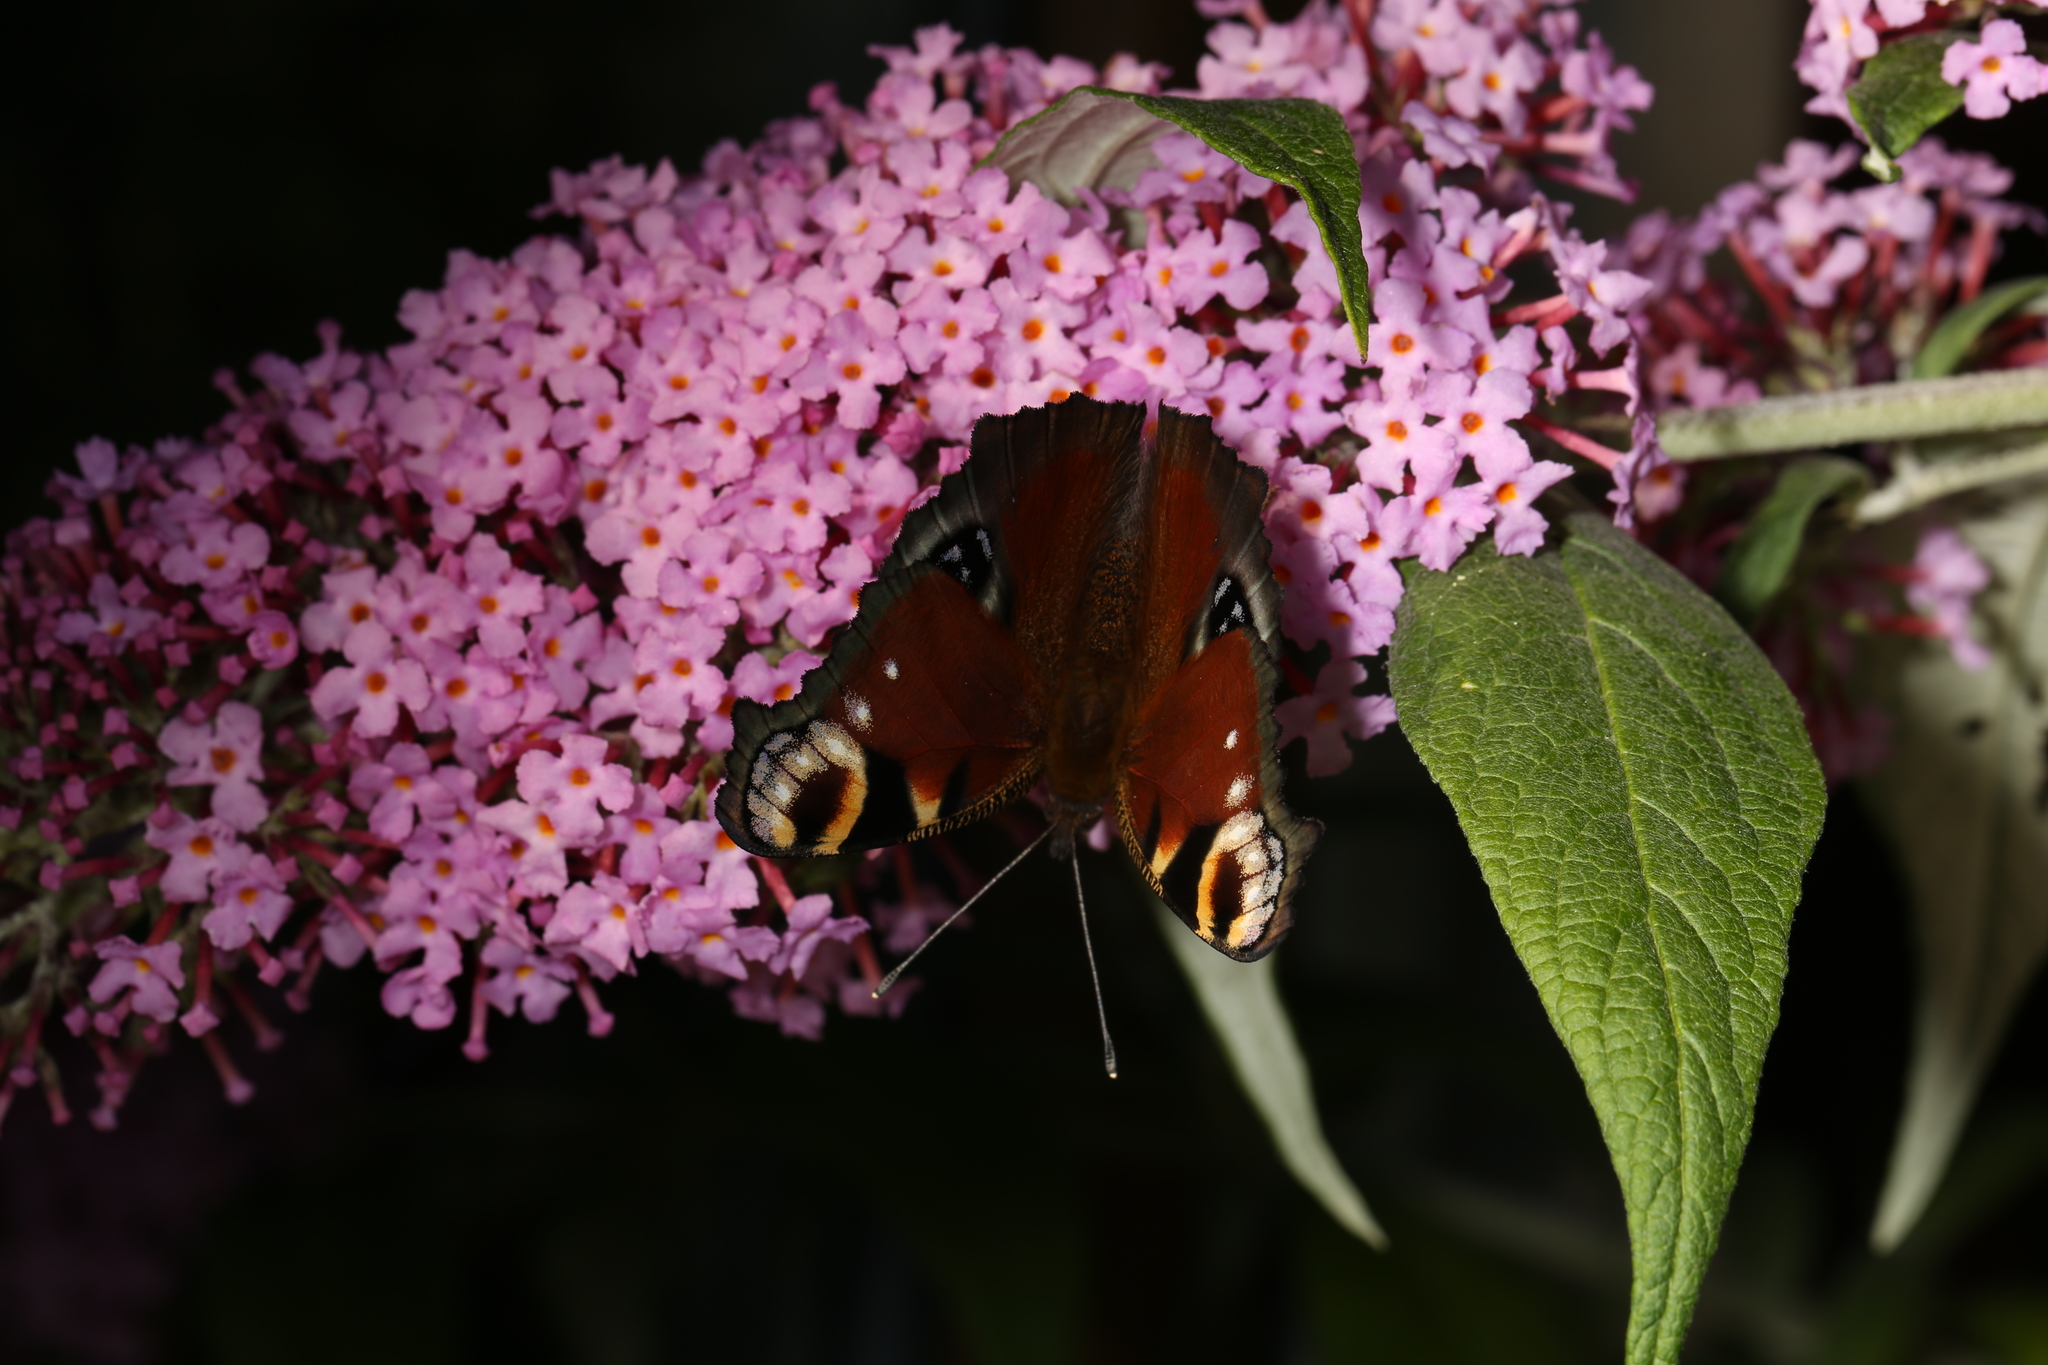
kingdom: Animalia
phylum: Arthropoda
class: Insecta
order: Lepidoptera
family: Nymphalidae
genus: Aglais
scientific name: Aglais io
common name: Peacock
